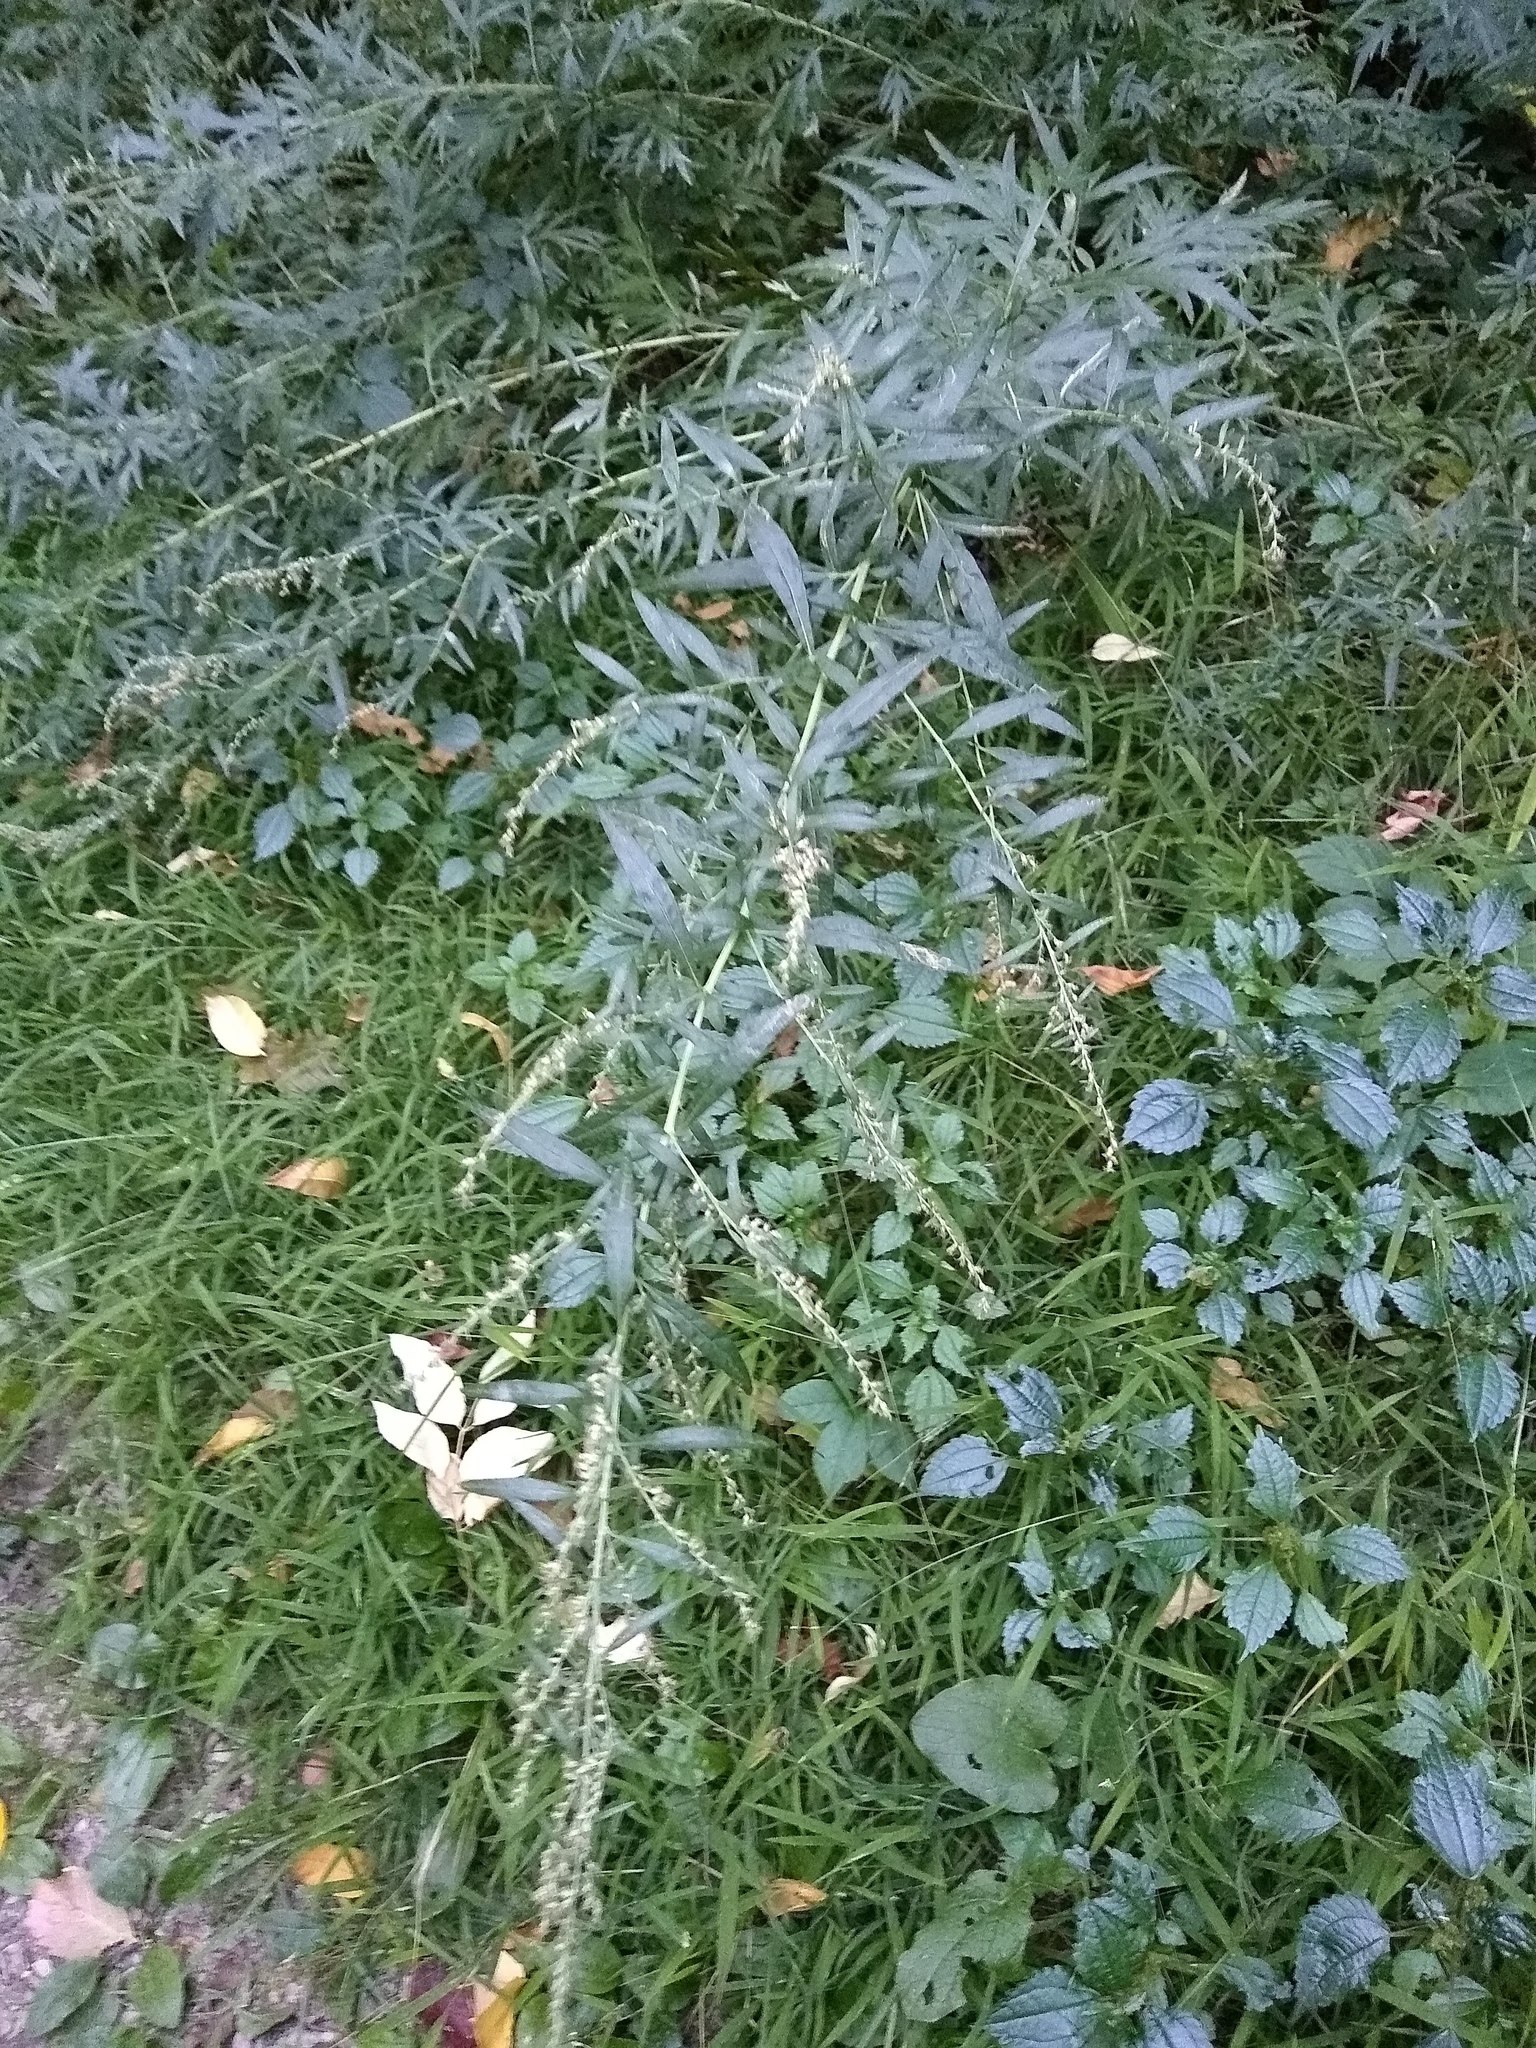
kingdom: Plantae
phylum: Tracheophyta
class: Magnoliopsida
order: Asterales
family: Asteraceae
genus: Artemisia
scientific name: Artemisia vulgaris
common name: Mugwort
